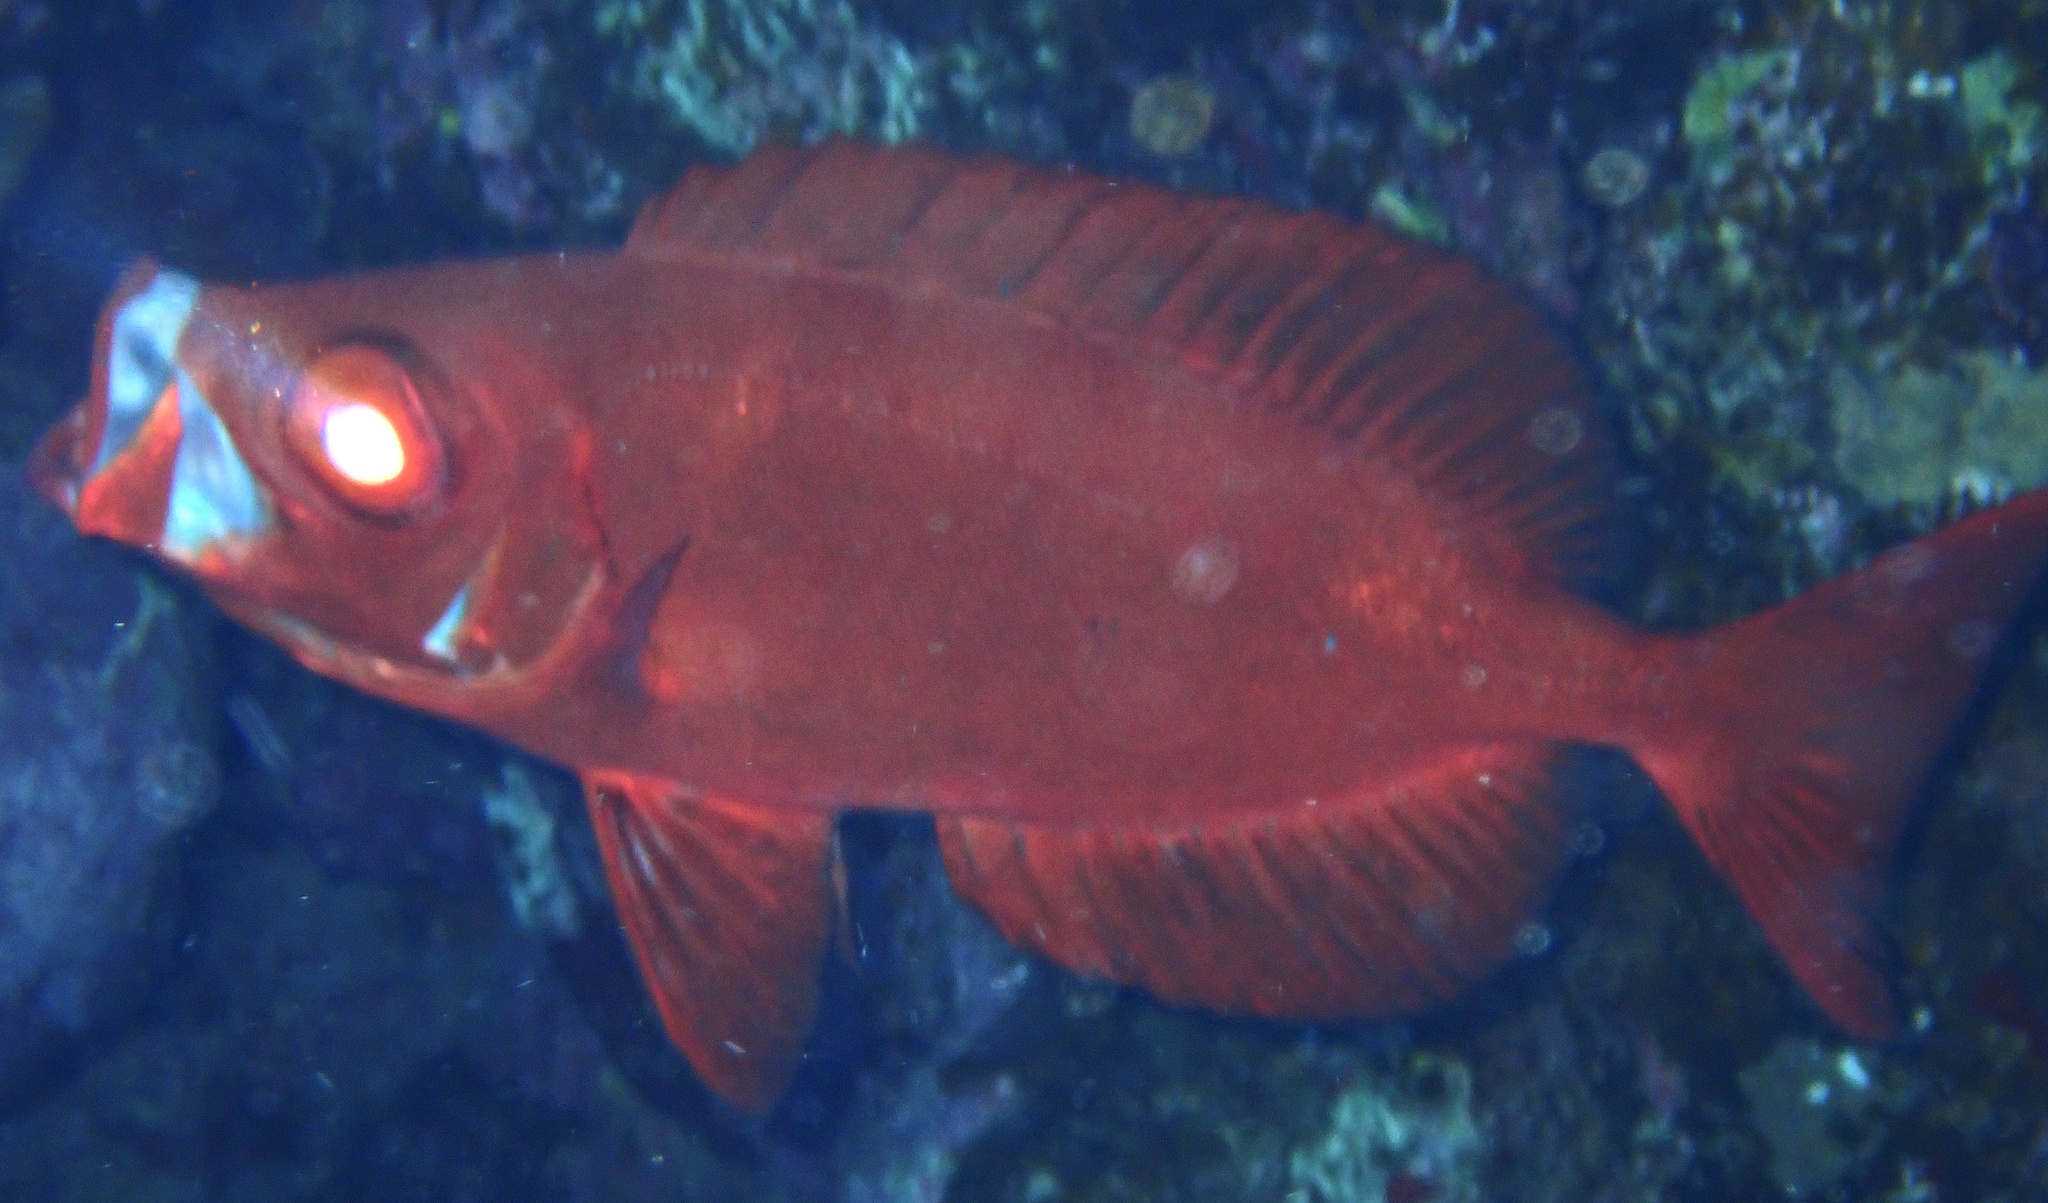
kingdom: Animalia
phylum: Chordata
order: Perciformes
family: Priacanthidae
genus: Priacanthus
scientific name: Priacanthus hamrur
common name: Moontail bullseye
